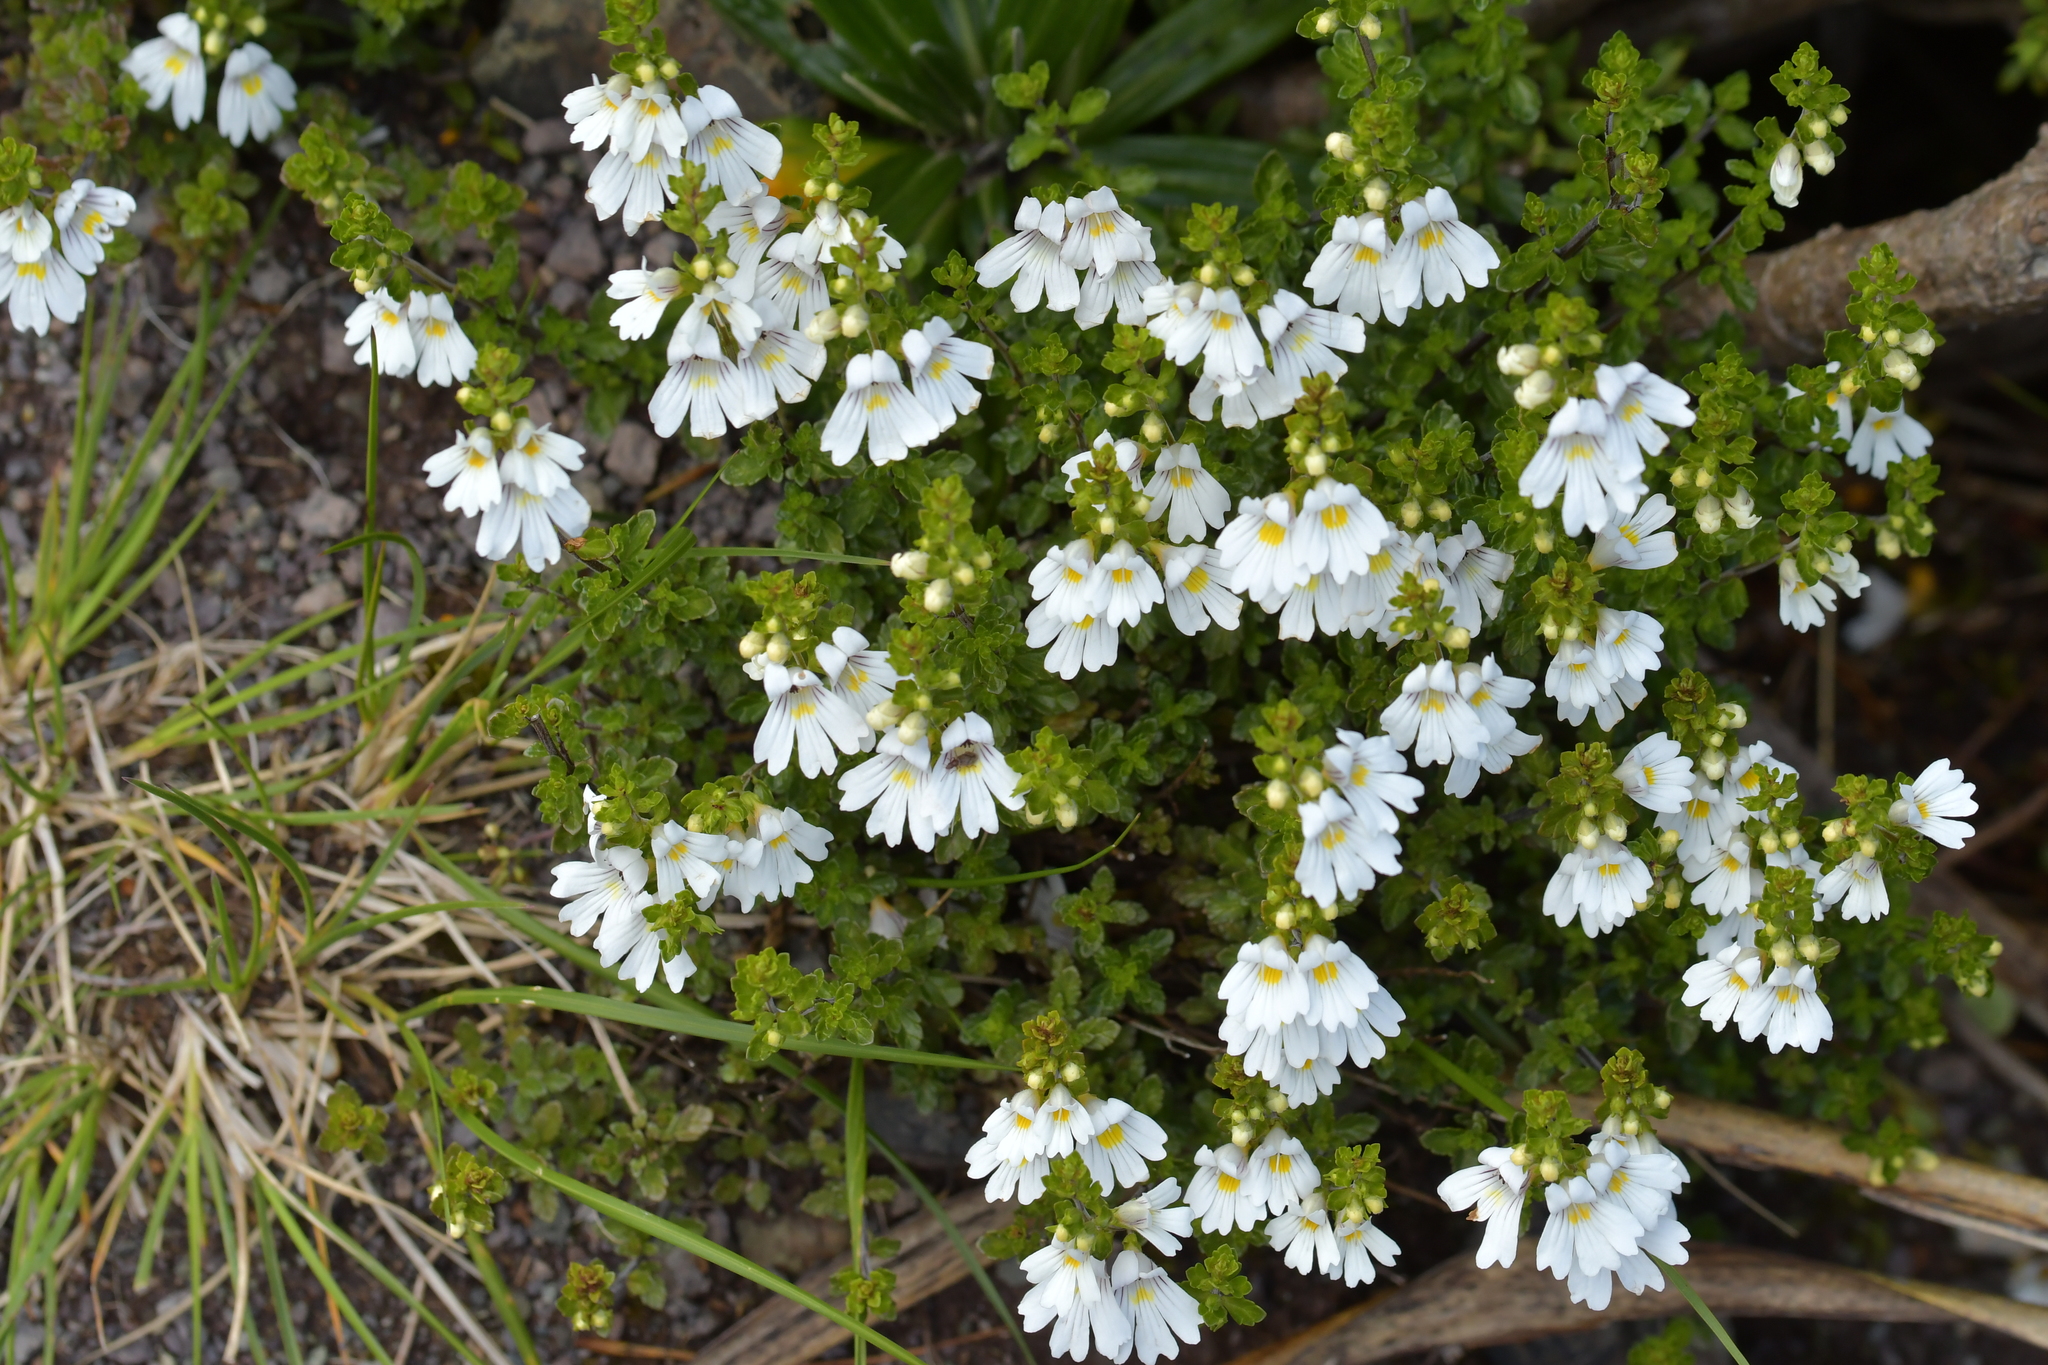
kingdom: Plantae
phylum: Tracheophyta
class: Magnoliopsida
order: Lamiales
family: Orobanchaceae
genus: Euphrasia
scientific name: Euphrasia cuneata
